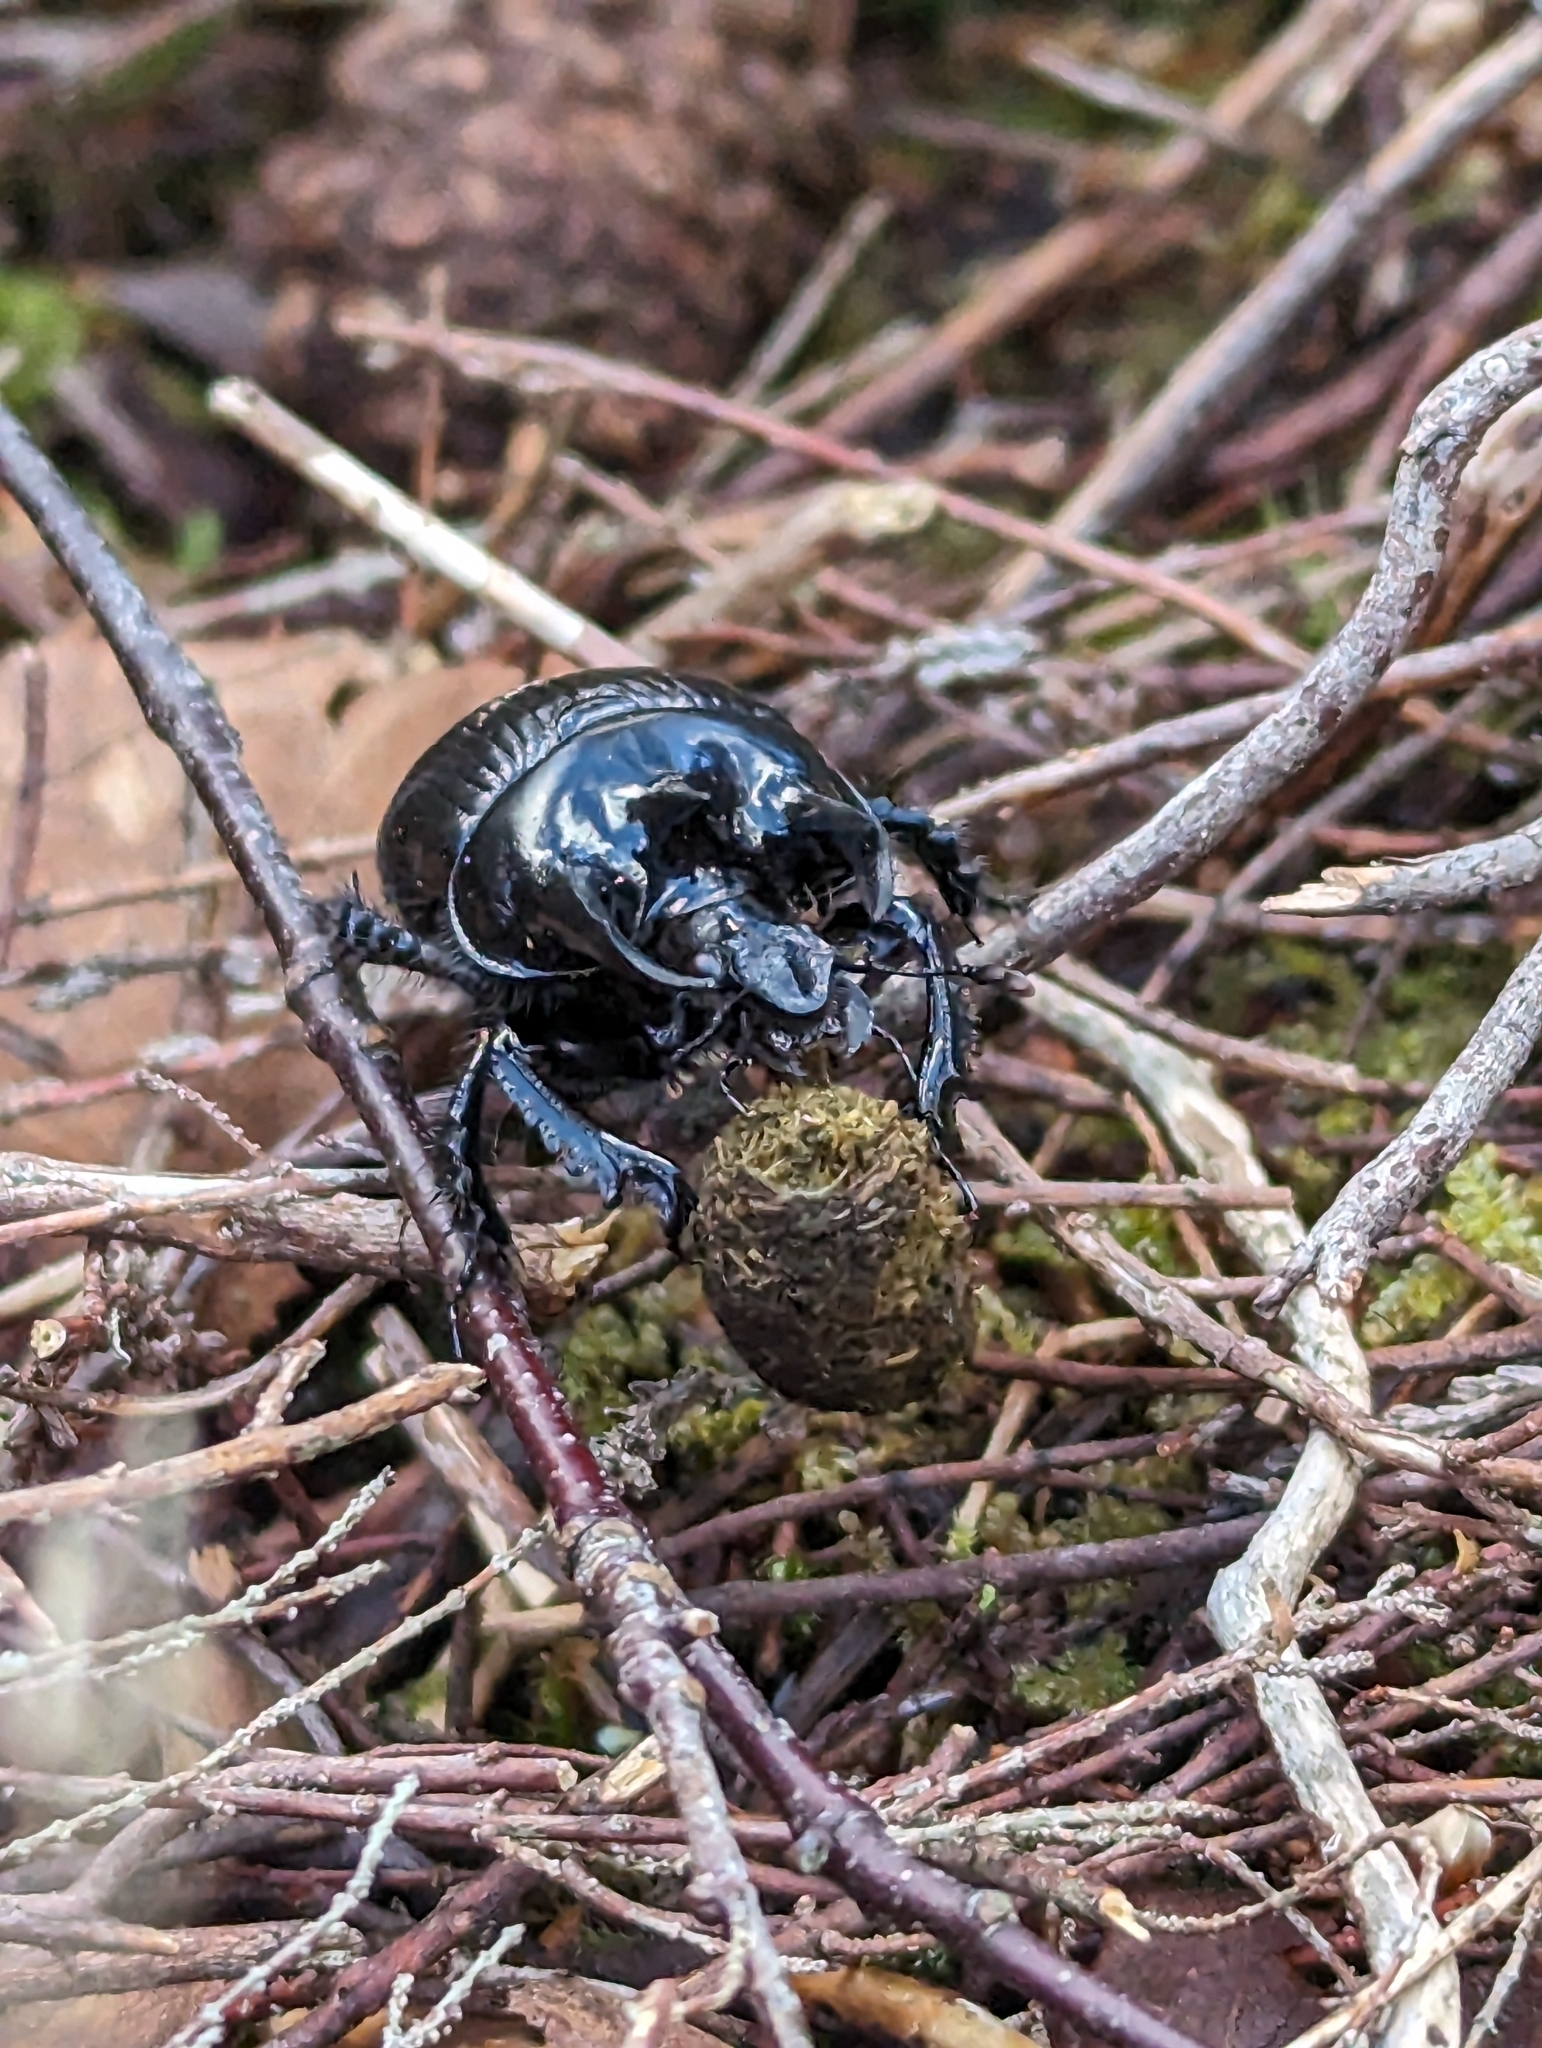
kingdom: Animalia
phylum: Arthropoda
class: Insecta
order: Coleoptera
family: Geotrupidae
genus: Typhaeus
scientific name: Typhaeus typhoeus
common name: Minotaur beetle
